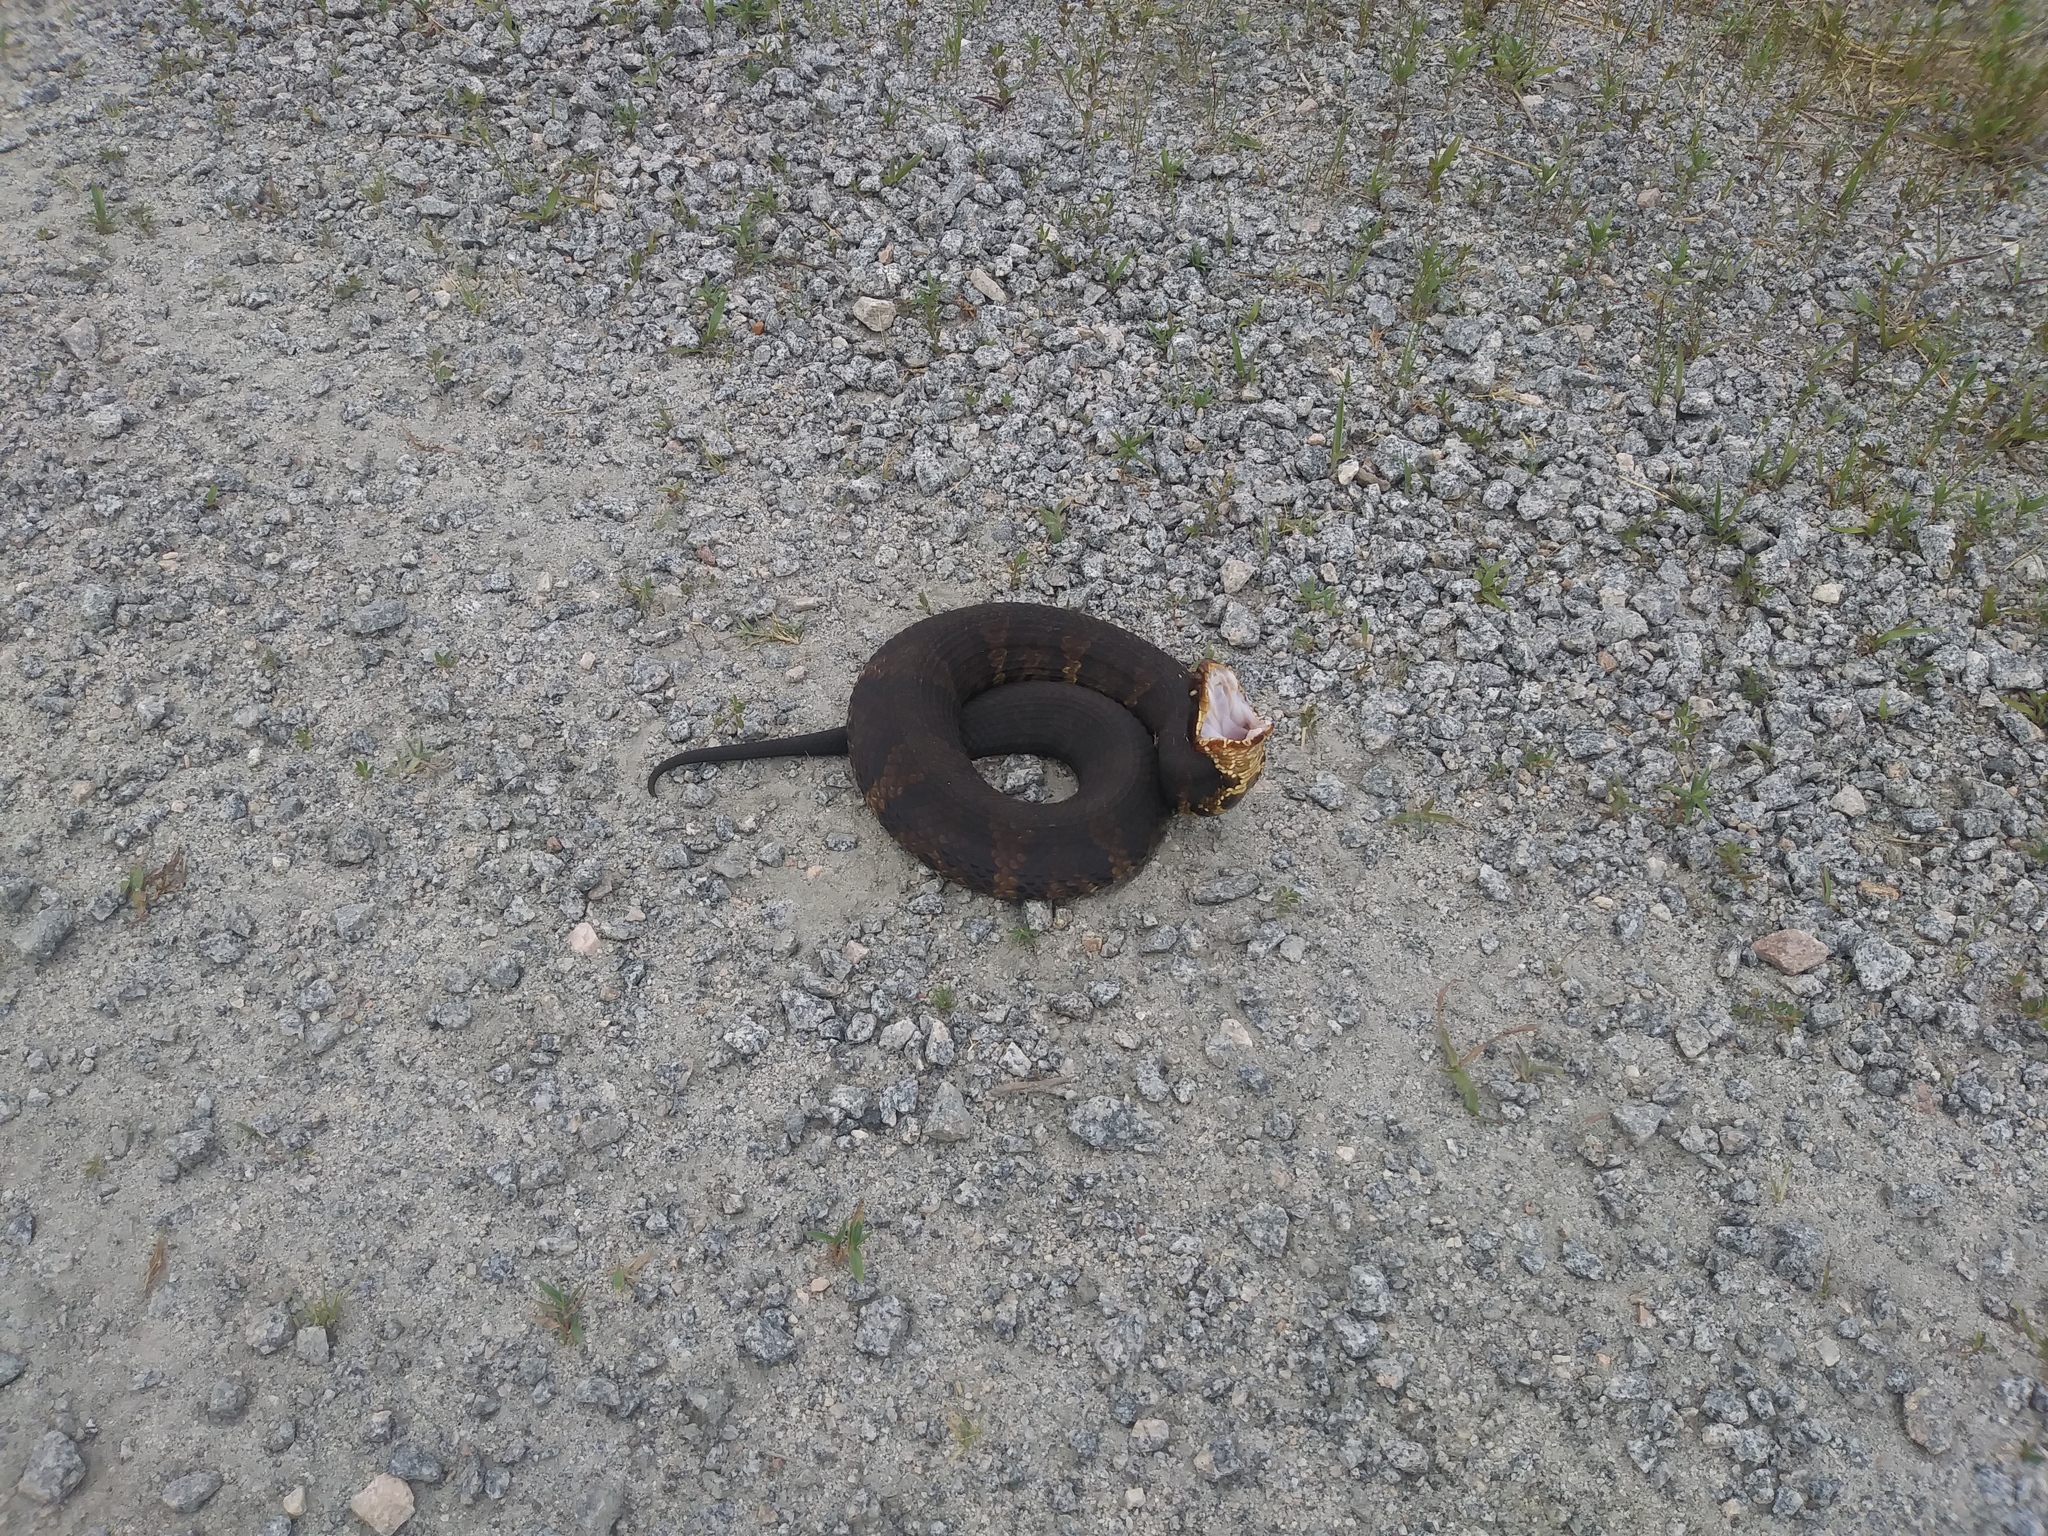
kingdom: Animalia
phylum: Chordata
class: Squamata
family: Viperidae
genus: Agkistrodon
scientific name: Agkistrodon piscivorus
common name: Cottonmouth
